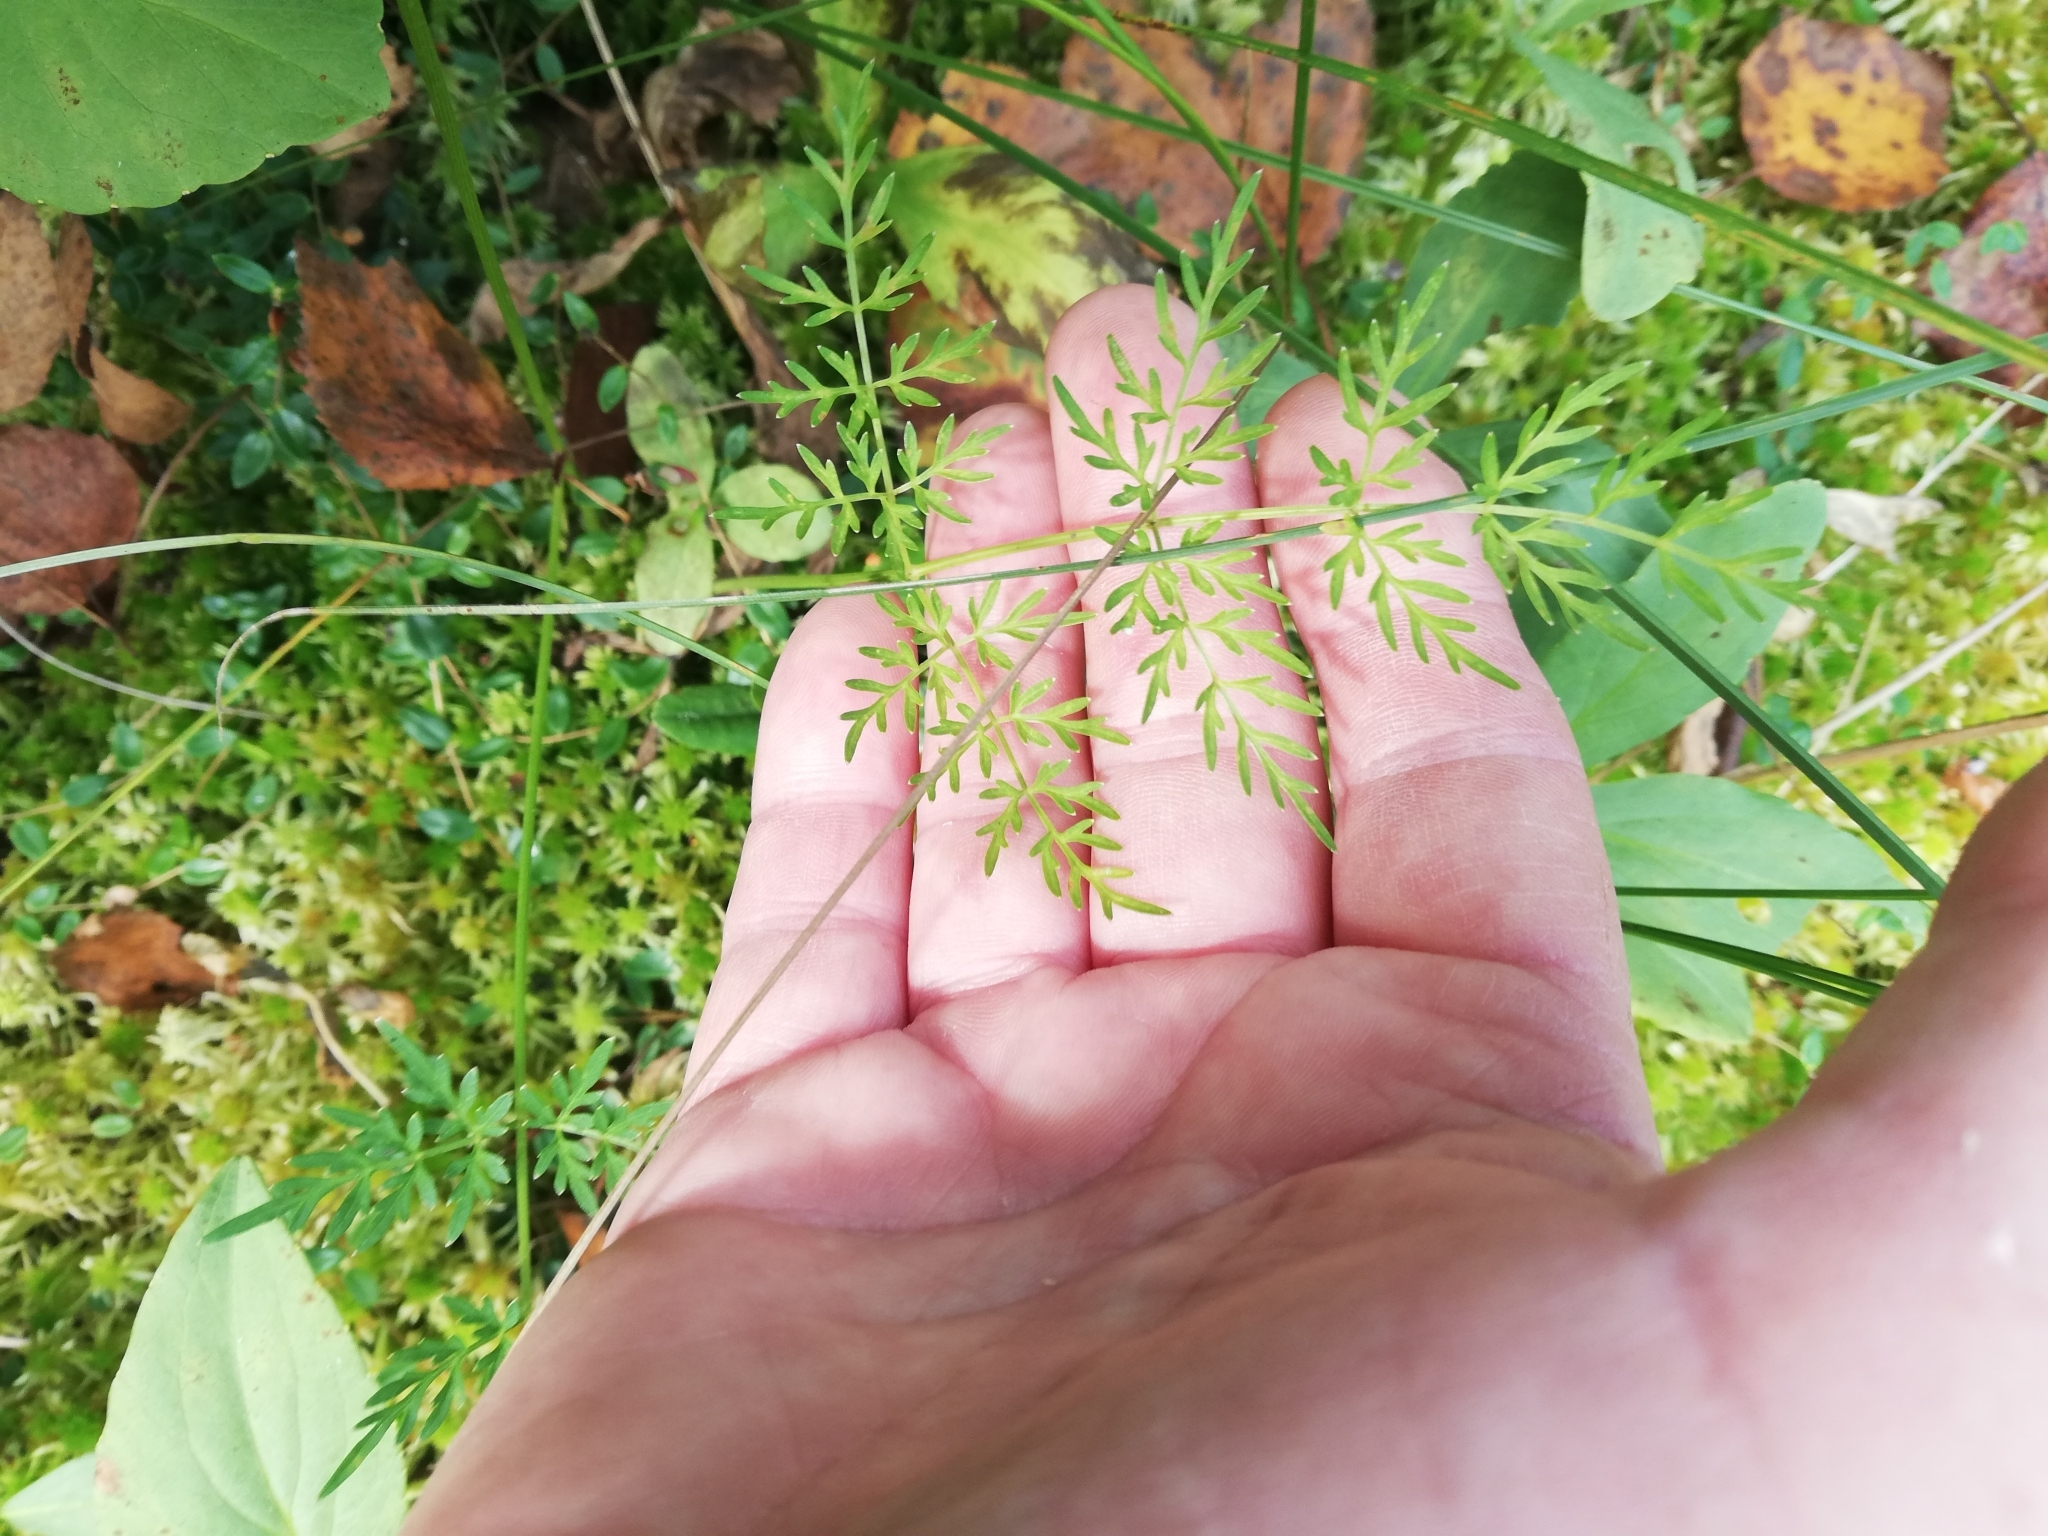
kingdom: Plantae
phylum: Tracheophyta
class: Magnoliopsida
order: Apiales
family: Apiaceae
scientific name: Apiaceae
